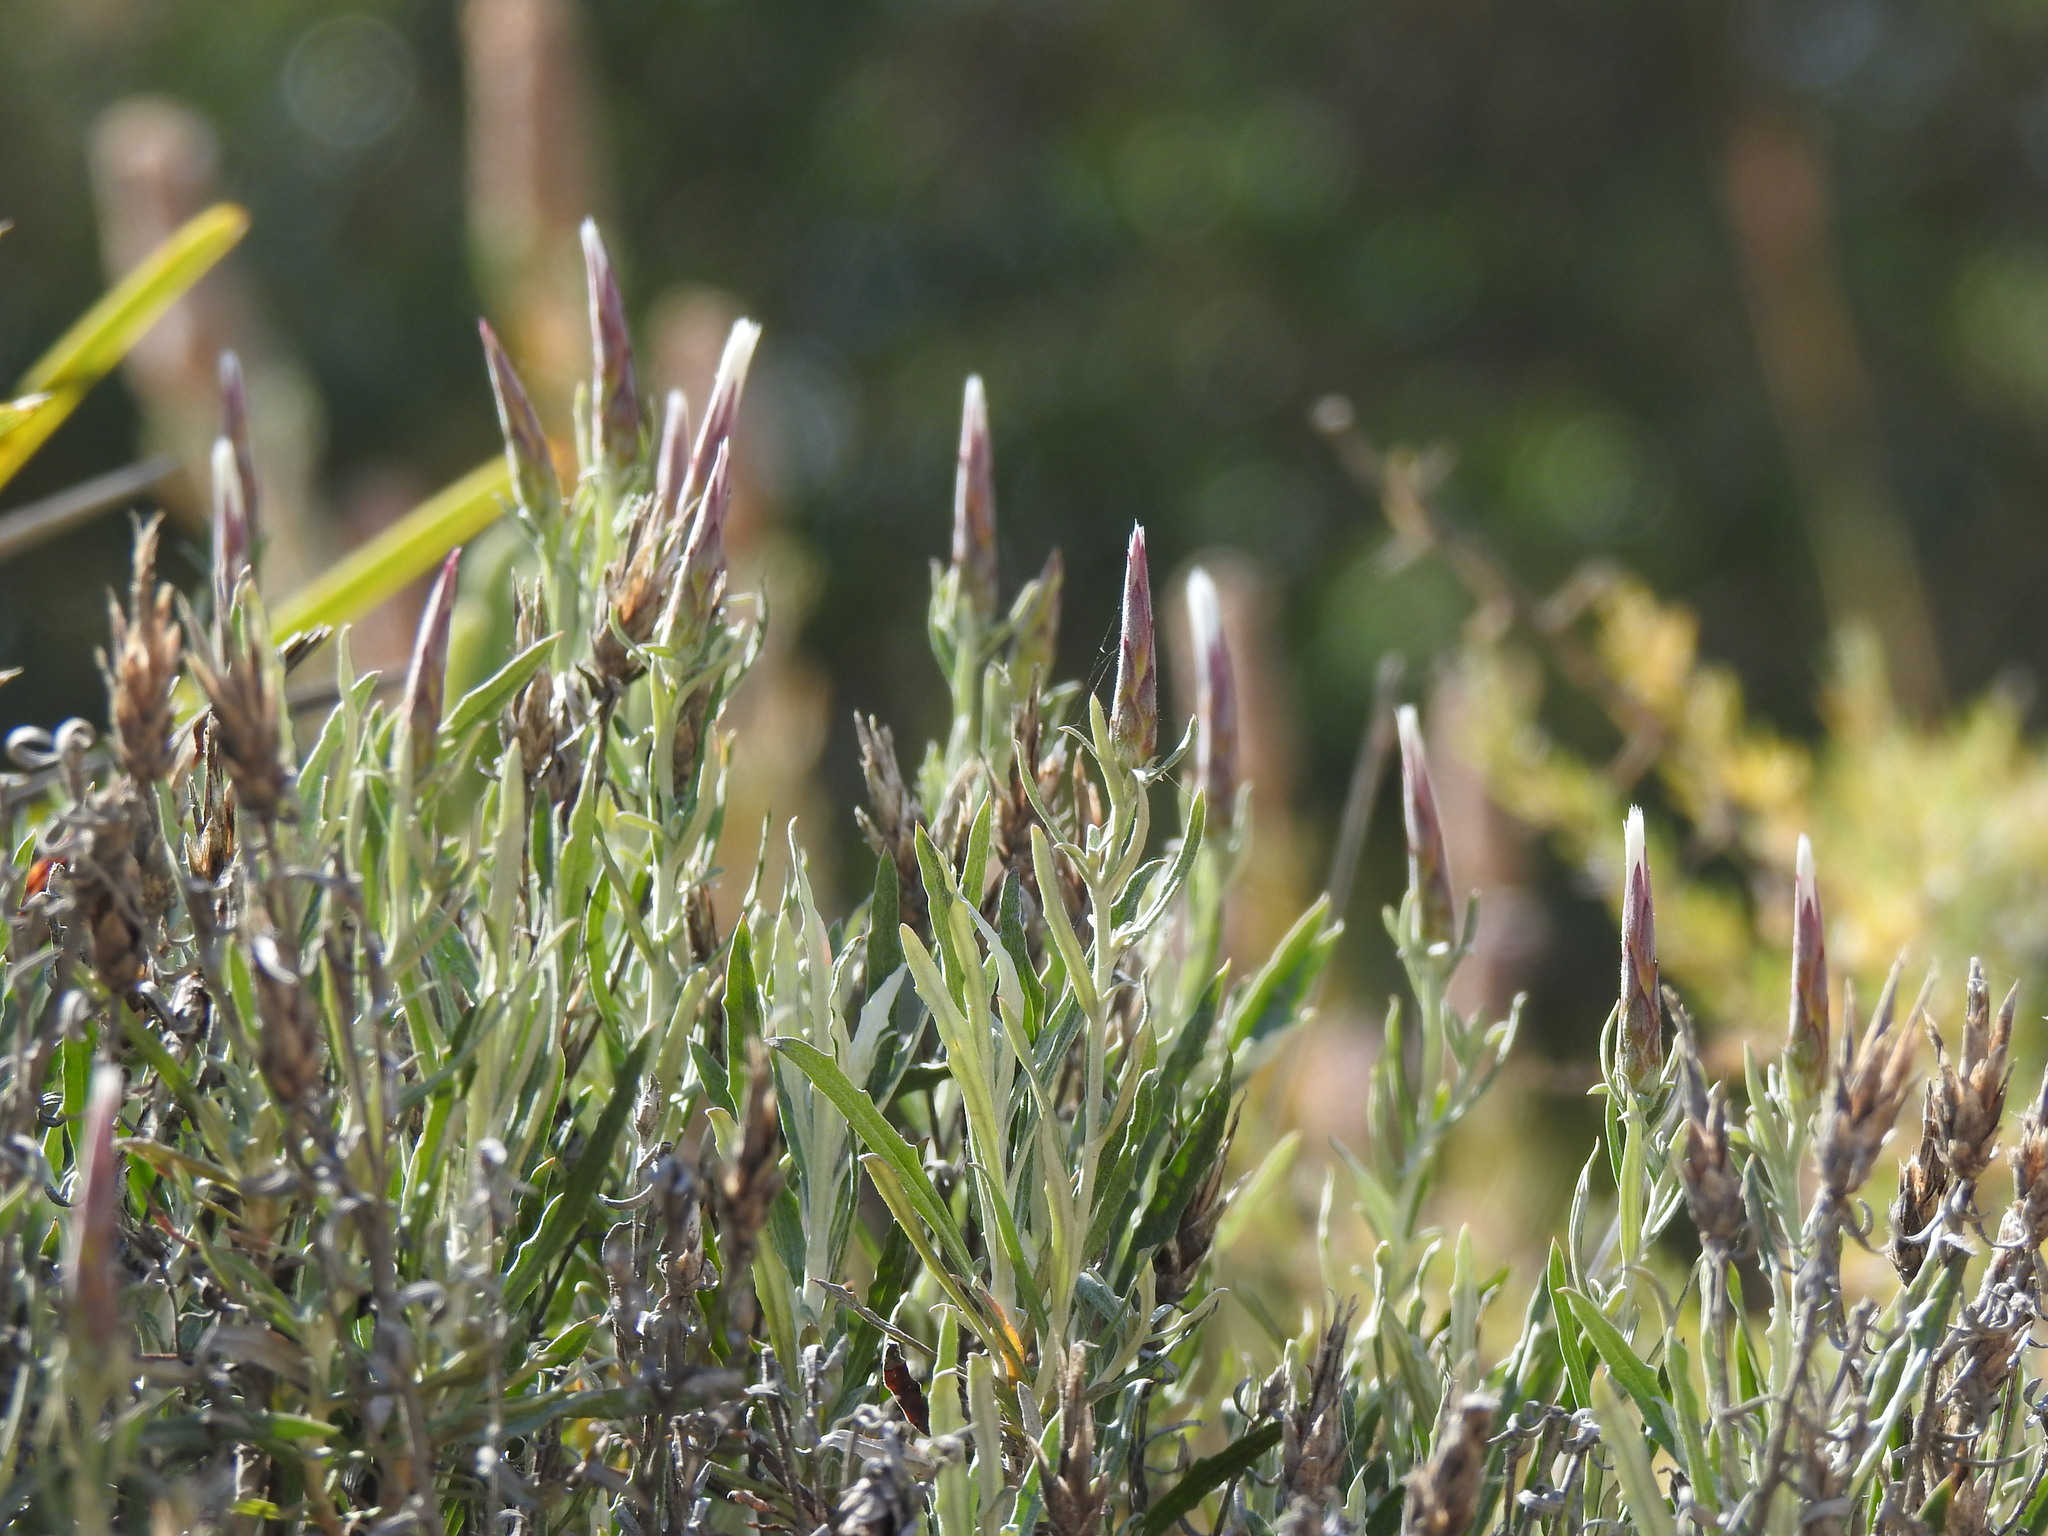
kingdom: Plantae
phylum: Tracheophyta
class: Magnoliopsida
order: Asterales
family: Asteraceae
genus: Staehelina
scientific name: Staehelina dubia
